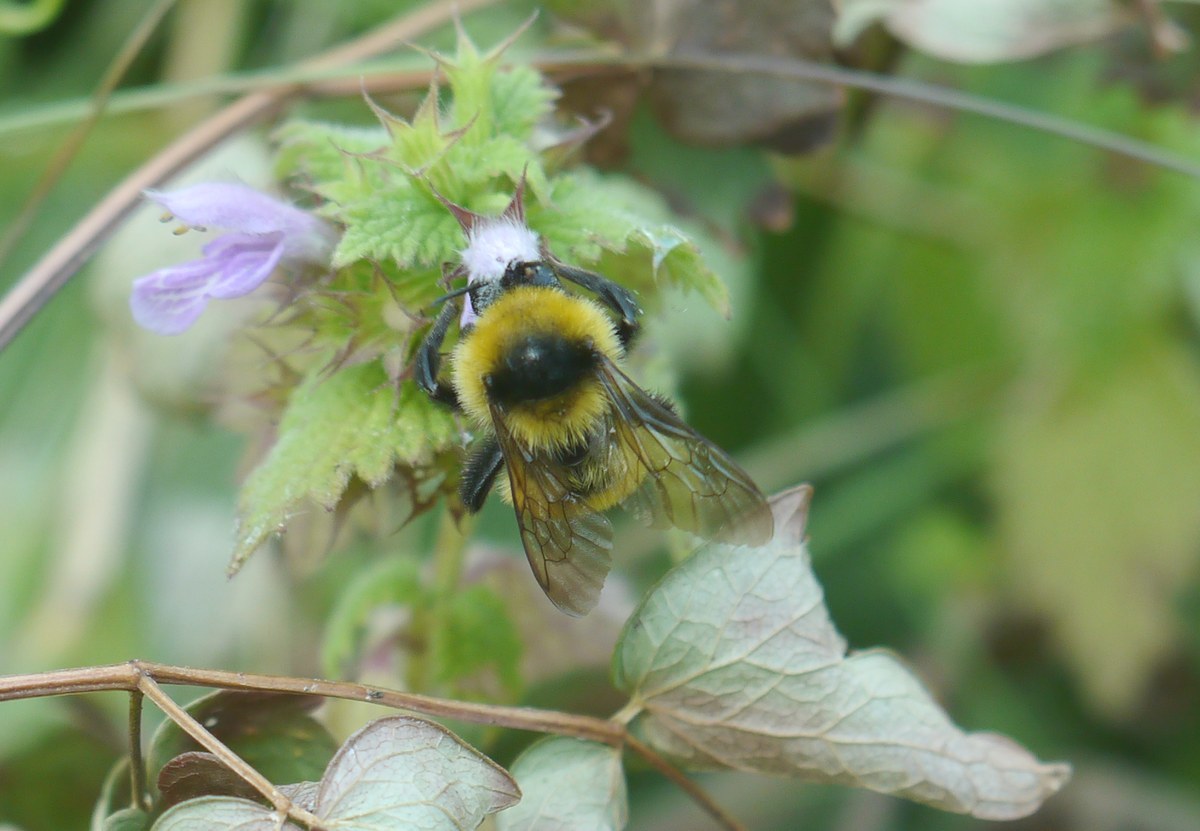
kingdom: Animalia
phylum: Arthropoda
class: Insecta
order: Hymenoptera
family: Apidae
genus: Bombus
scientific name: Bombus
